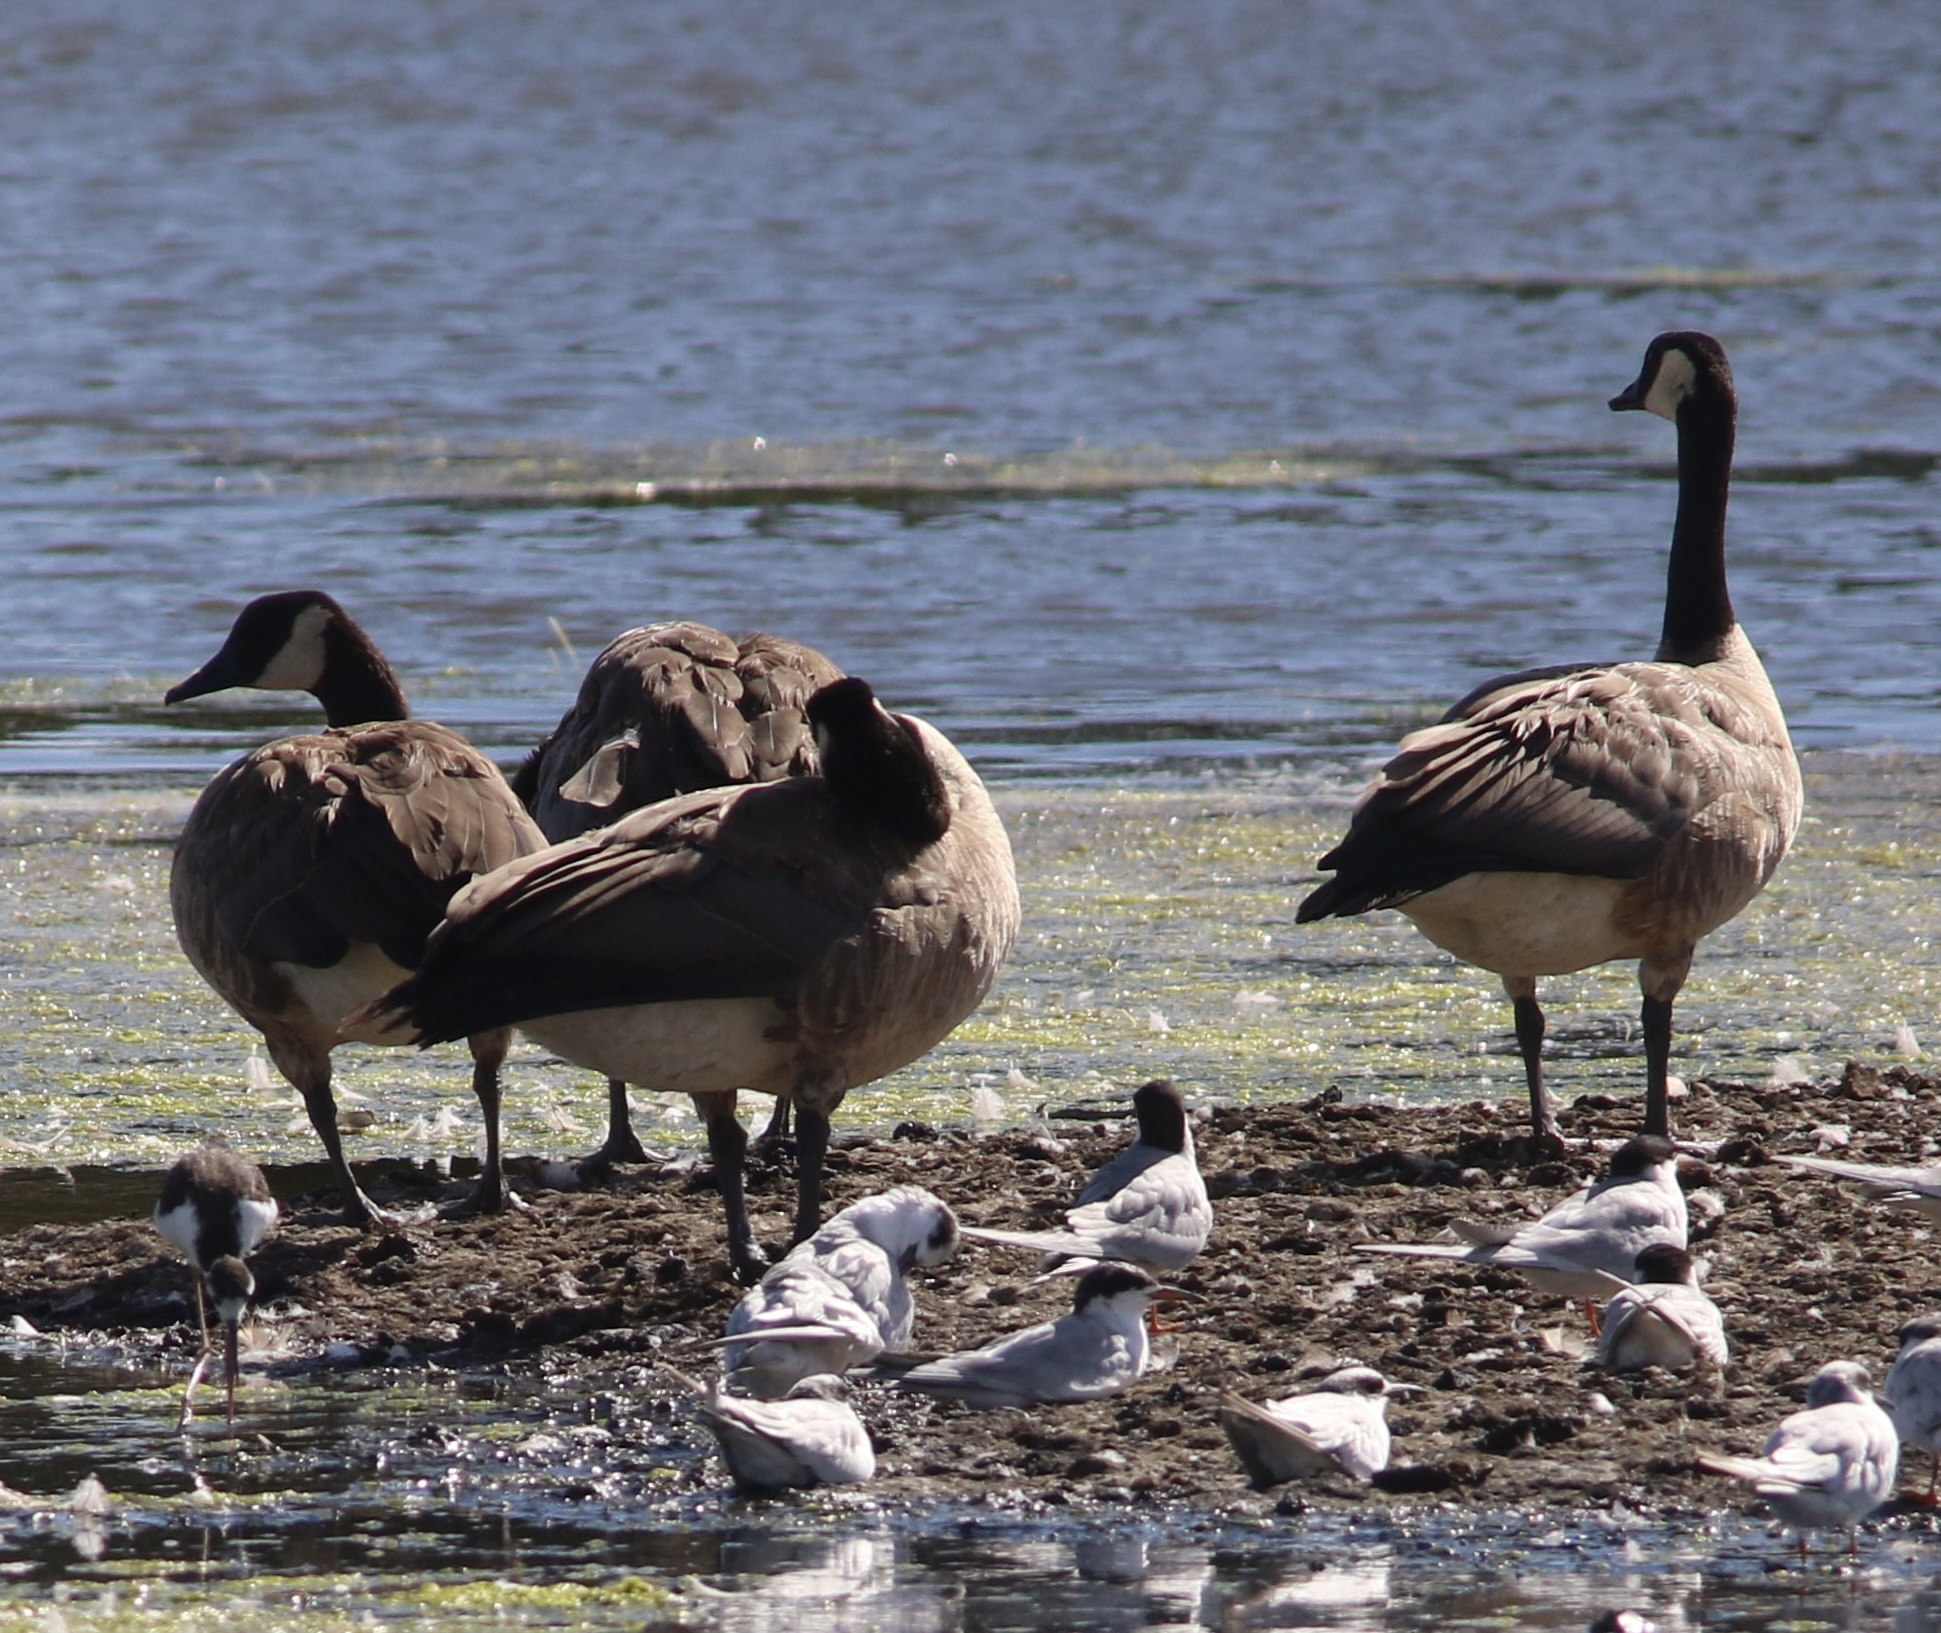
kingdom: Animalia
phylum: Chordata
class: Aves
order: Anseriformes
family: Anatidae
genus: Branta
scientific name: Branta canadensis
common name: Canada goose
